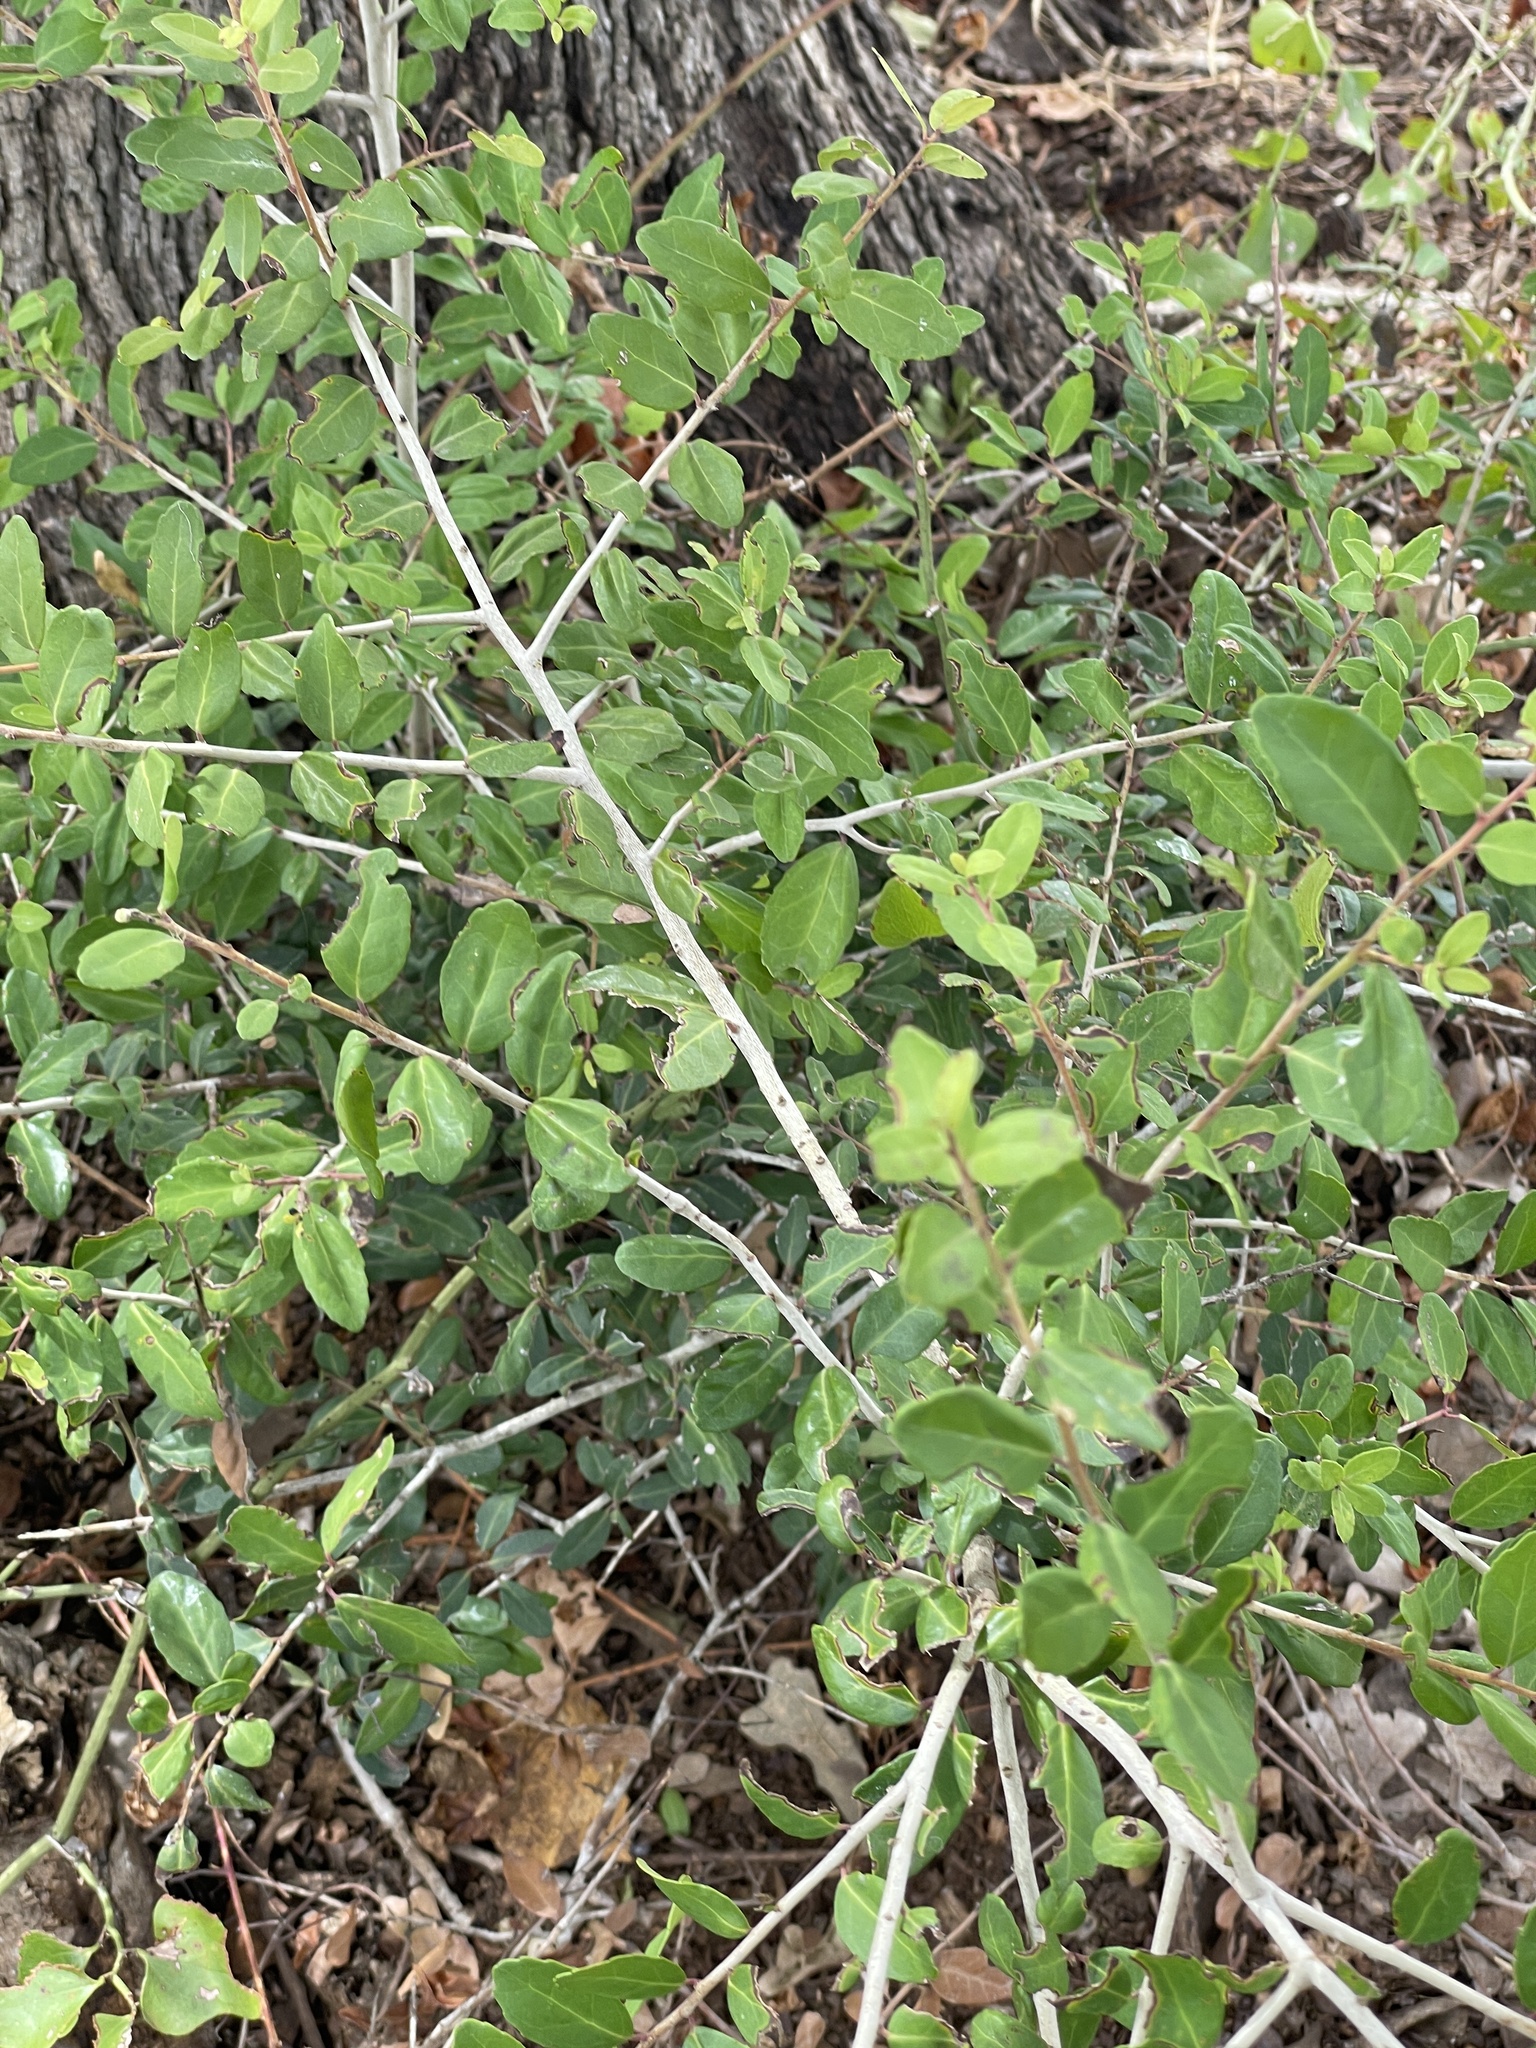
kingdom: Plantae
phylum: Tracheophyta
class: Magnoliopsida
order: Aquifoliales
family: Aquifoliaceae
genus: Ilex
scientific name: Ilex vomitoria
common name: Yaupon holly
